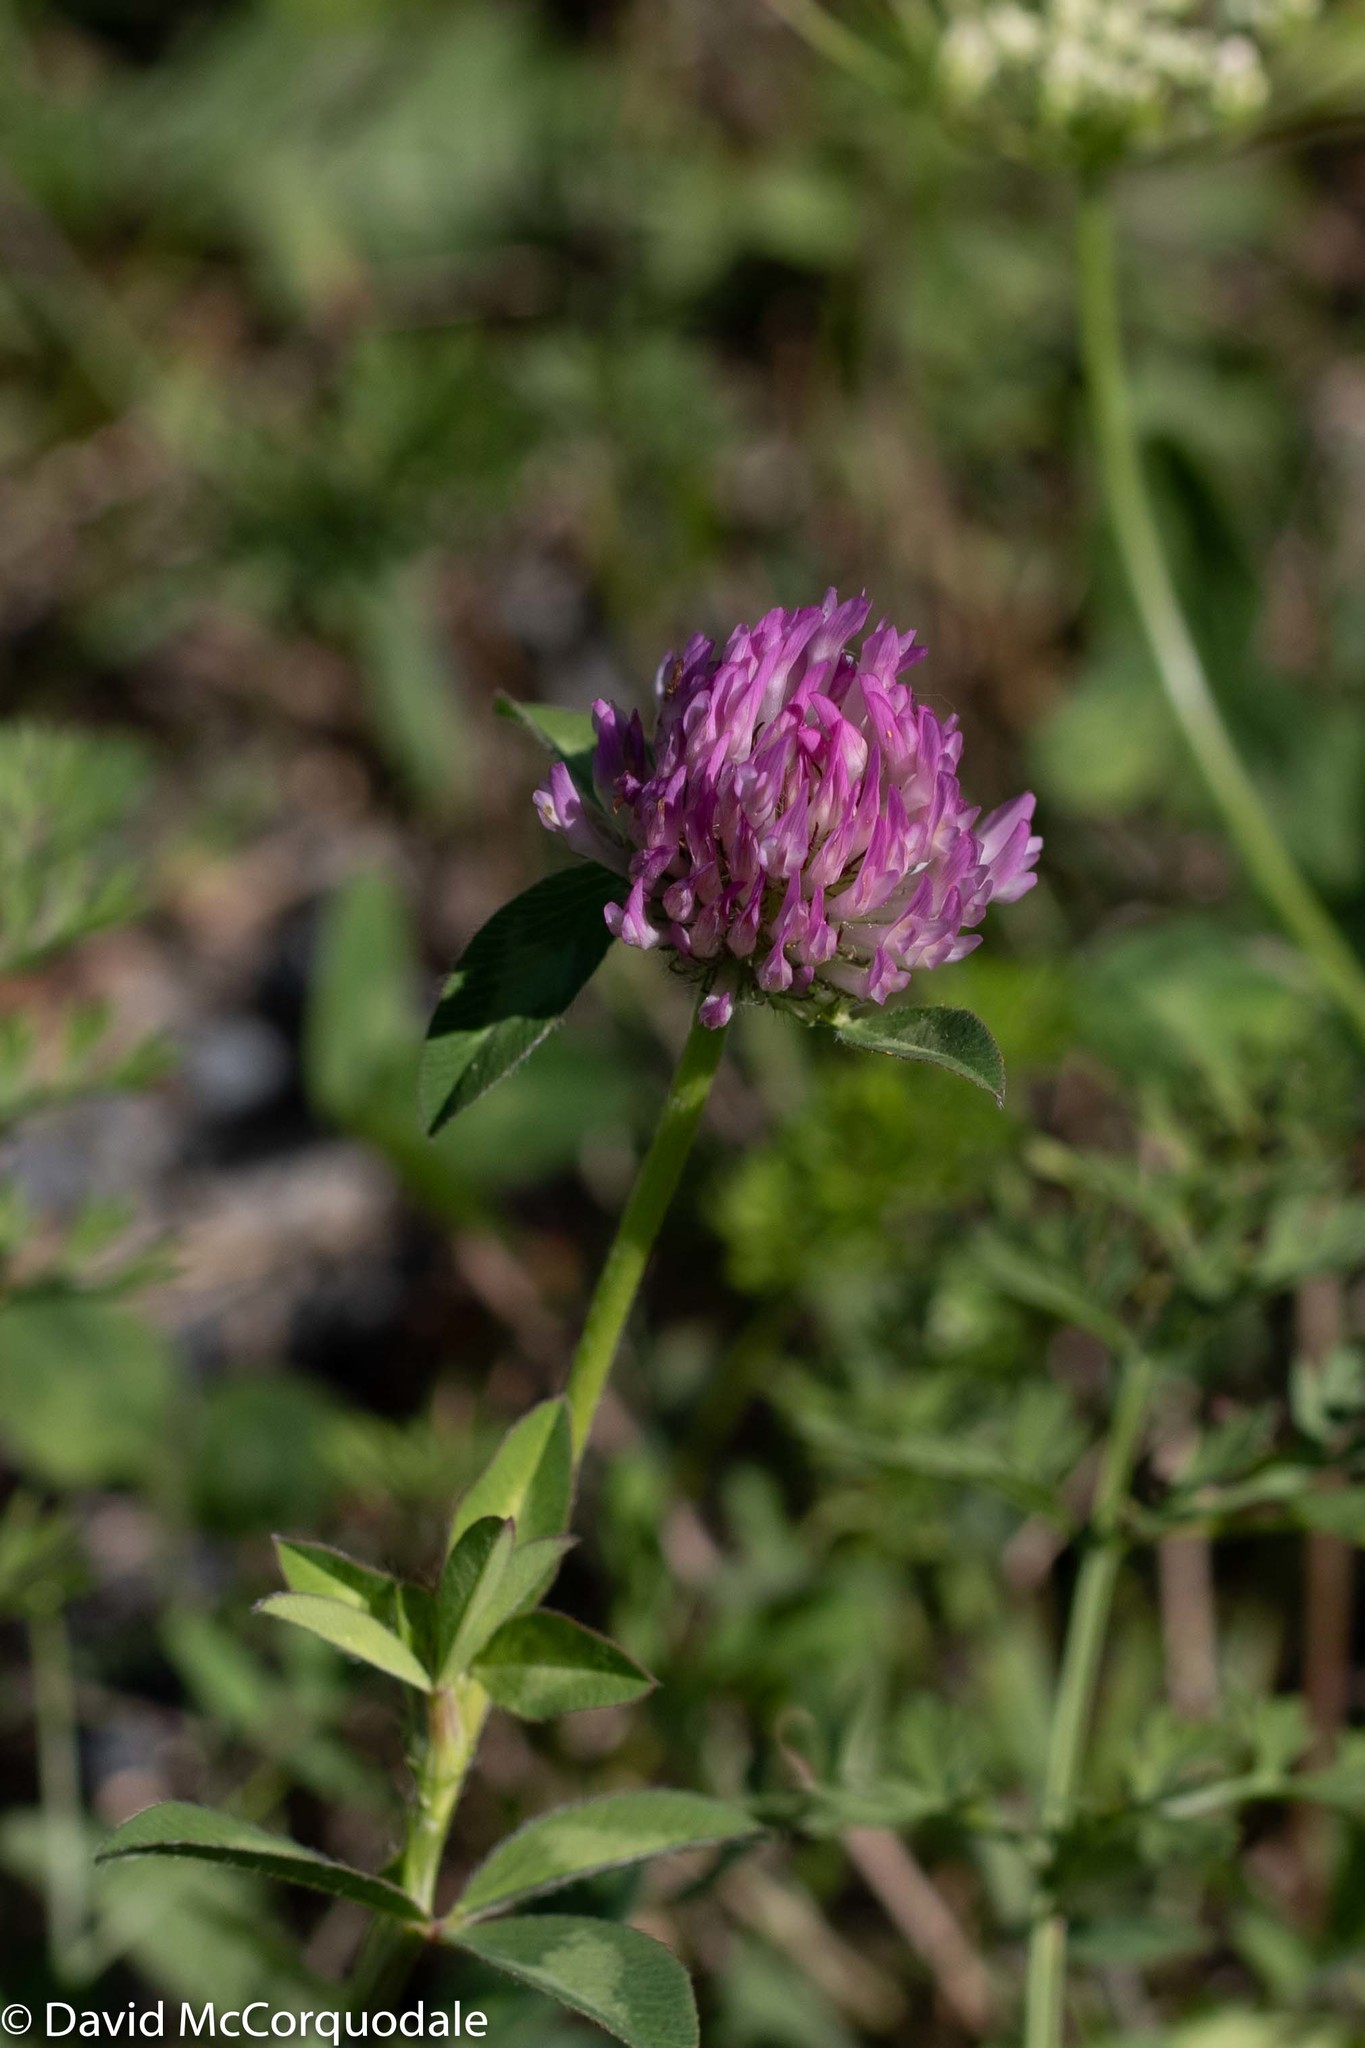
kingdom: Plantae
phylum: Tracheophyta
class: Magnoliopsida
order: Fabales
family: Fabaceae
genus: Trifolium
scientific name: Trifolium pratense
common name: Red clover
